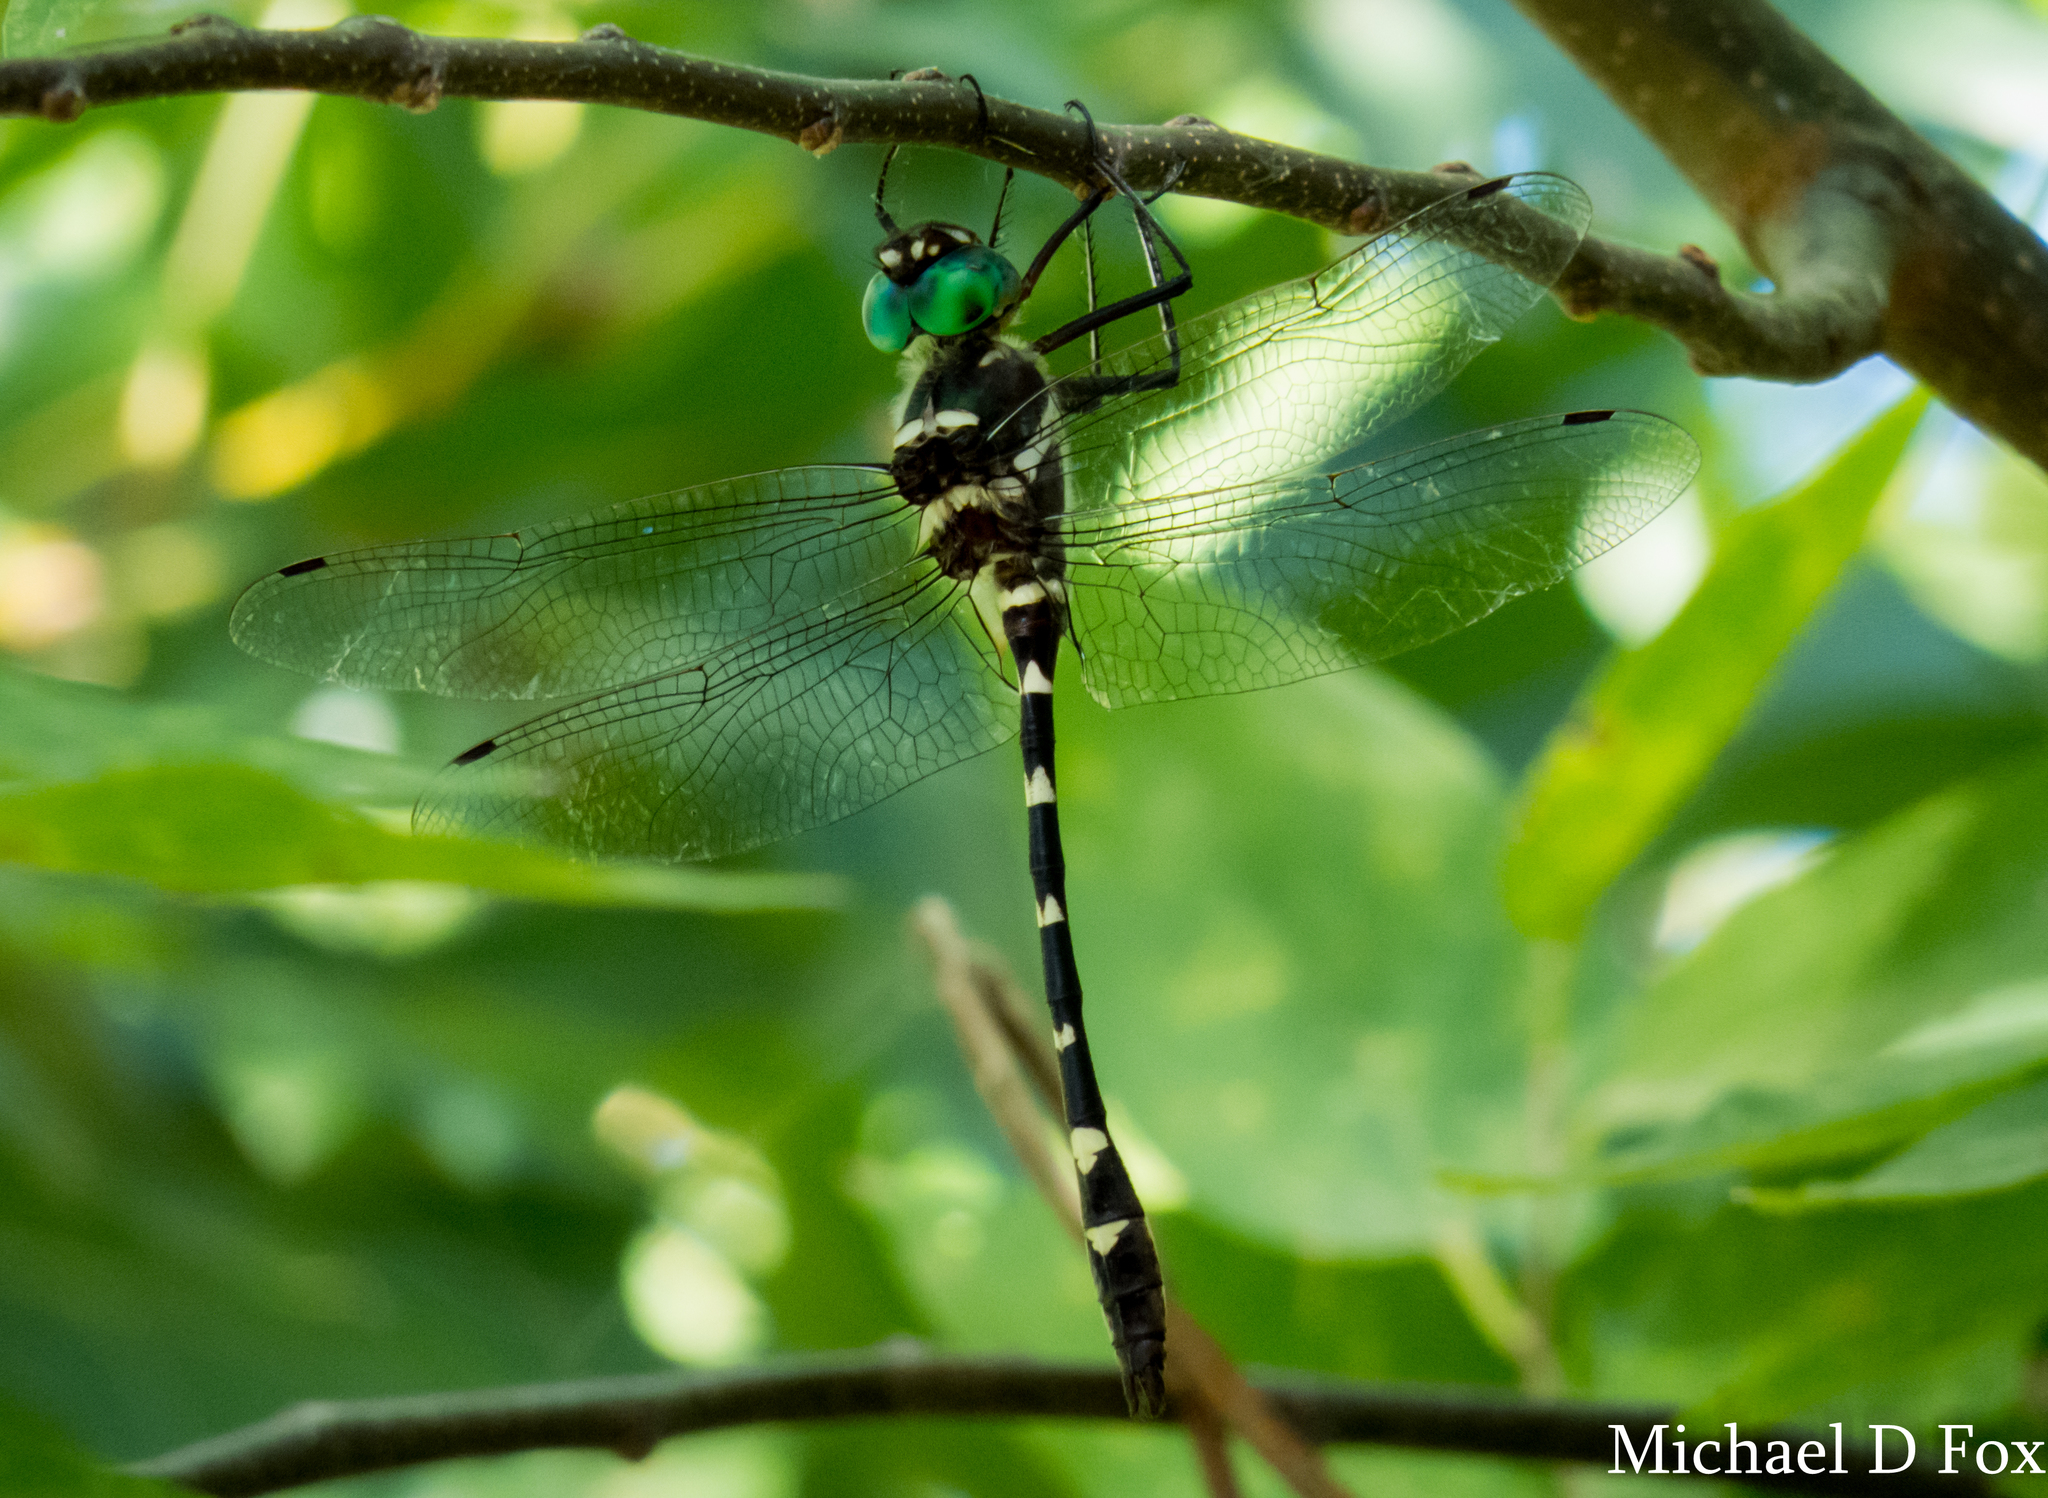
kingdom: Animalia
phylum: Arthropoda
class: Insecta
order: Odonata
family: Macromiidae
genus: Macromia
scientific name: Macromia illinoiensis
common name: Swift river cruiser
